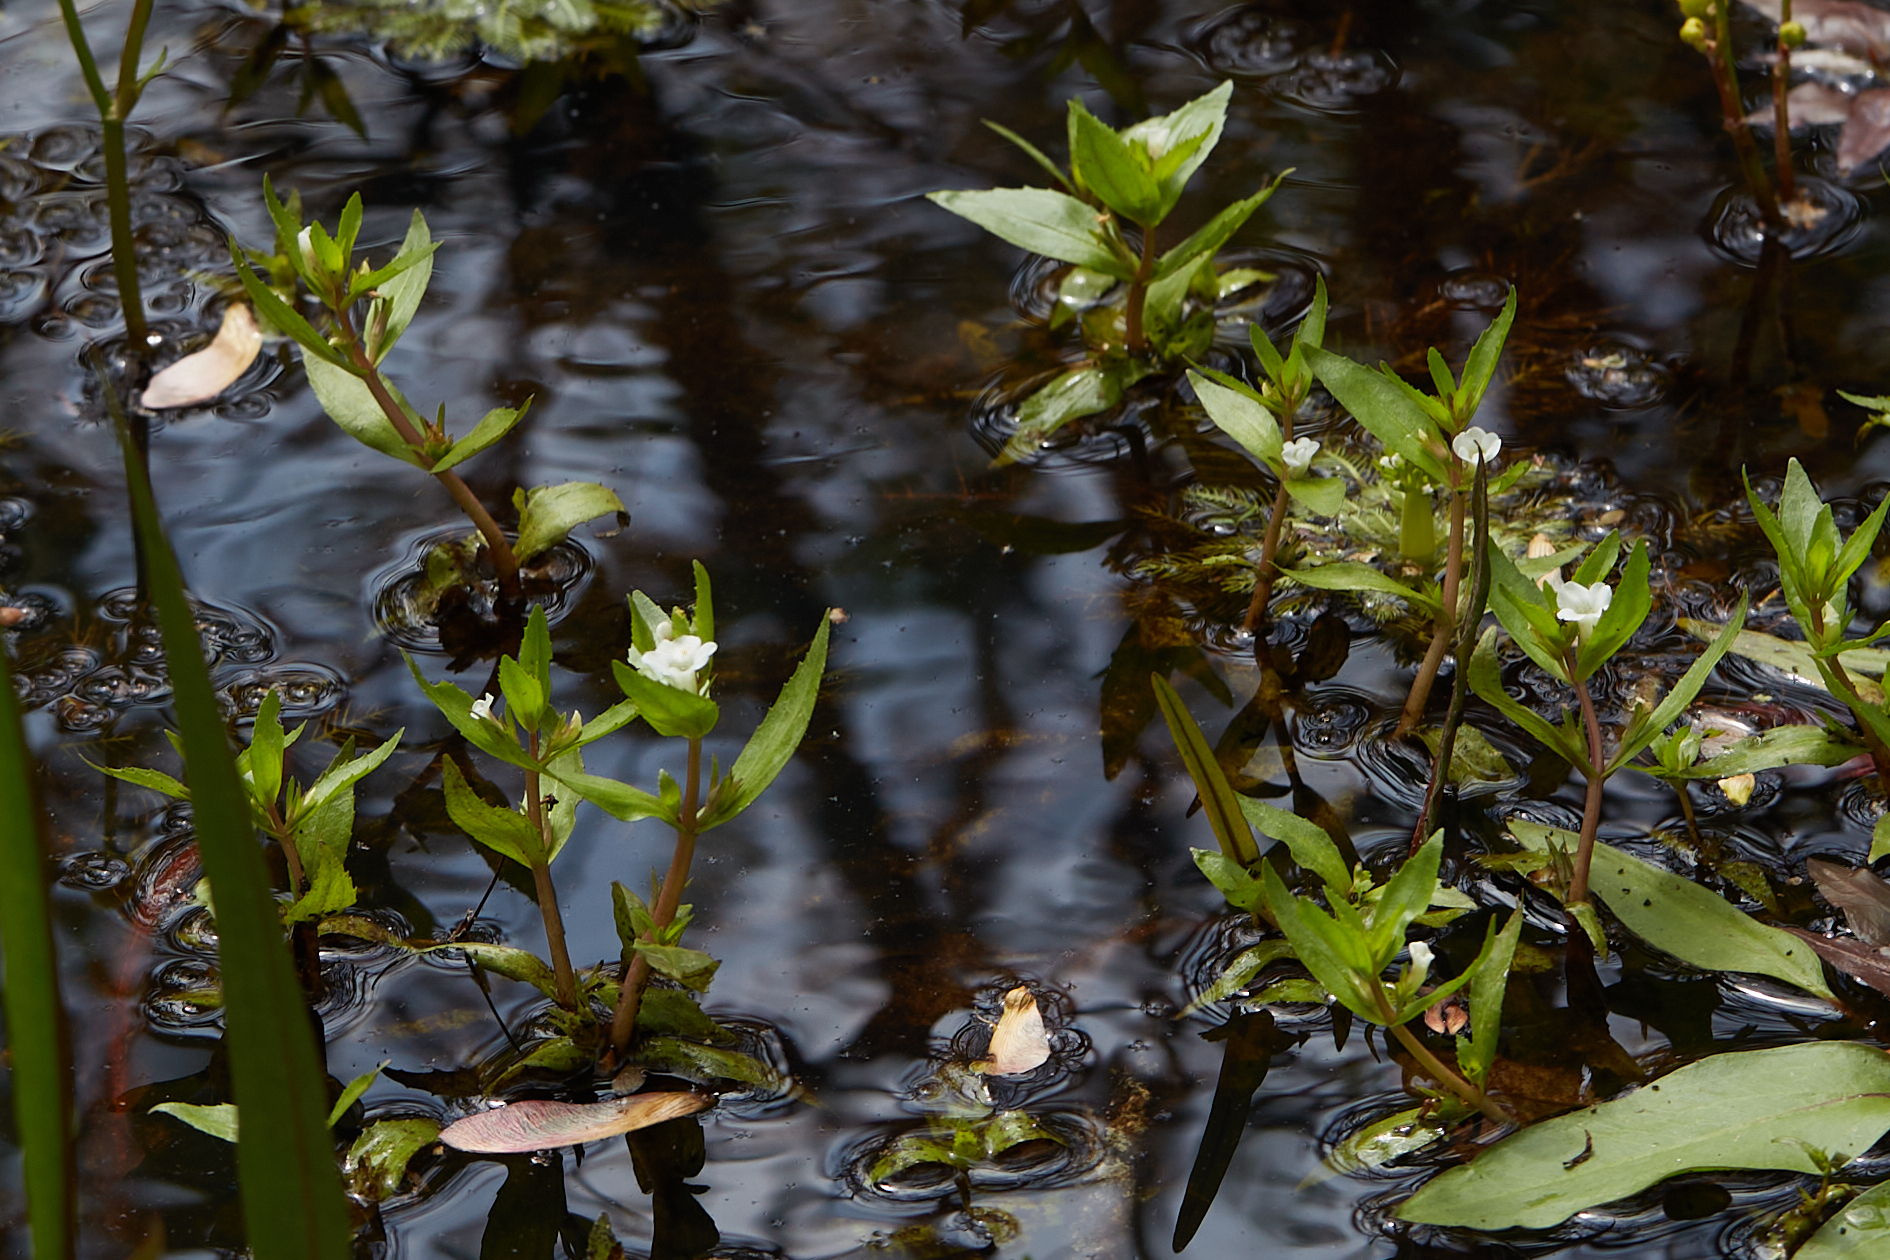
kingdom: Plantae
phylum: Tracheophyta
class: Magnoliopsida
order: Lamiales
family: Plantaginaceae
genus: Gratiola
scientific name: Gratiola virginiana
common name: Roundfruit hedgehyssop
